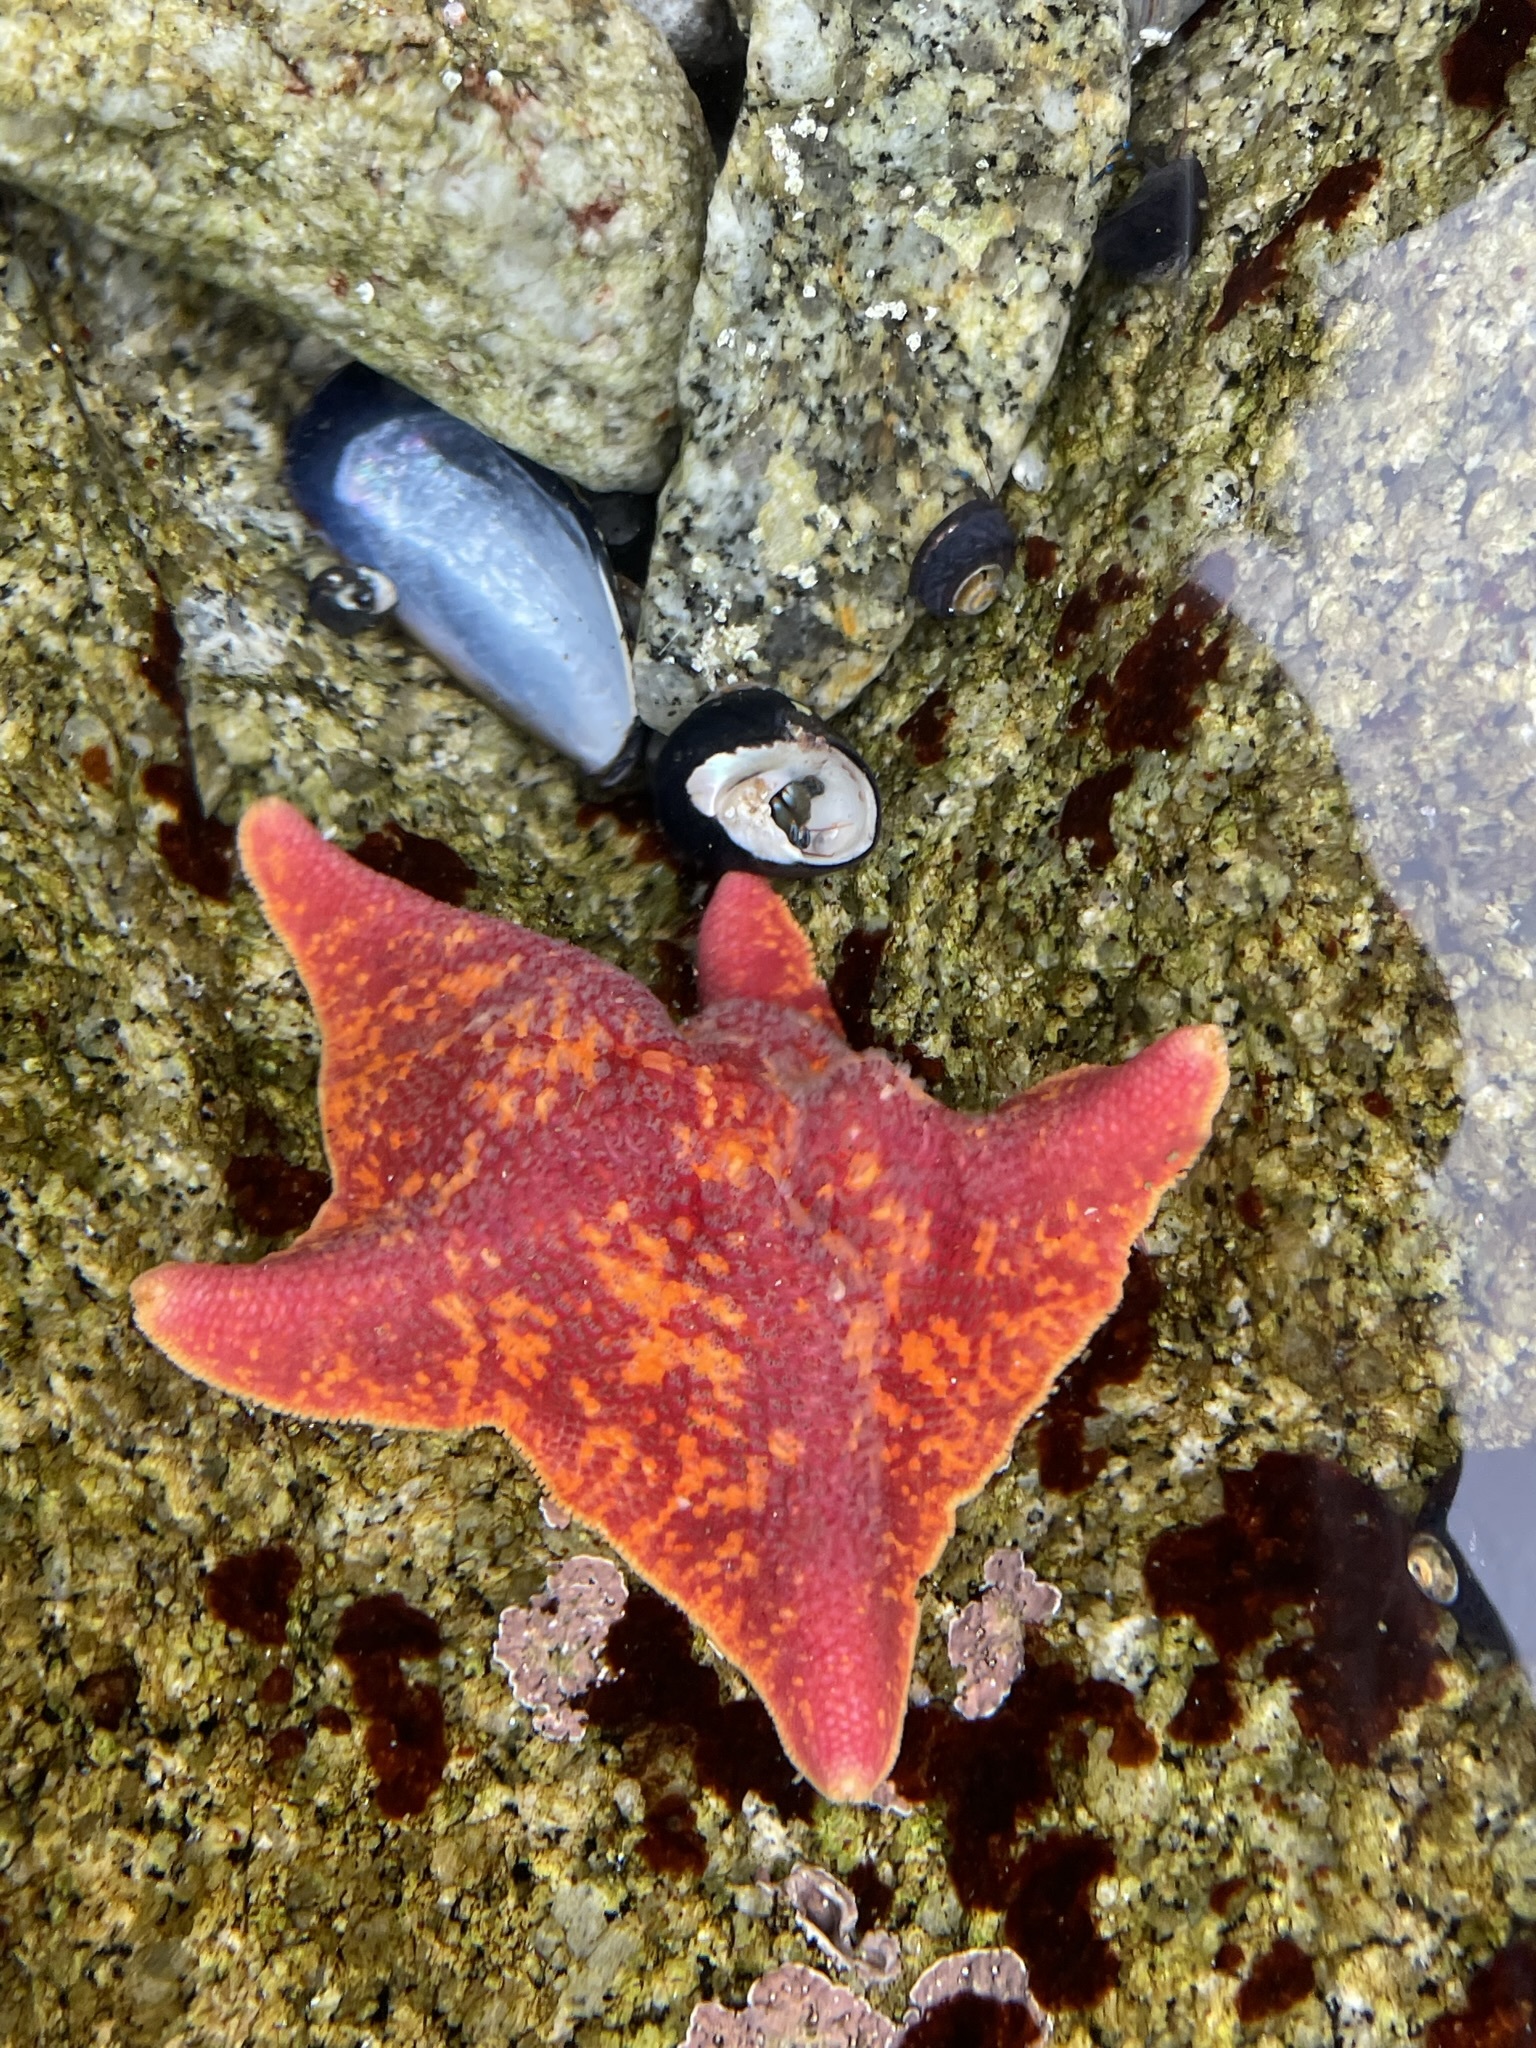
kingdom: Animalia
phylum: Echinodermata
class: Asteroidea
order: Valvatida
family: Asterinidae
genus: Patiria
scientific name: Patiria miniata
